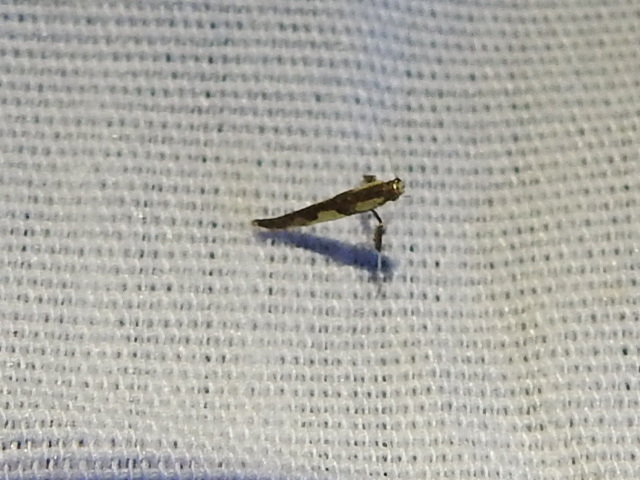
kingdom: Animalia
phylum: Arthropoda
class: Insecta
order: Lepidoptera
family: Gracillariidae
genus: Caloptilia
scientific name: Caloptilia blandella
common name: Walnut caloptilia moth
